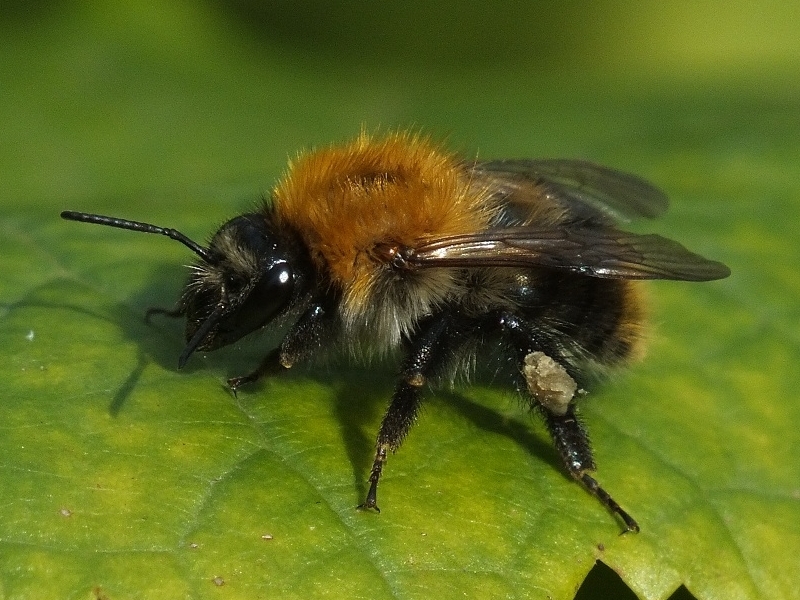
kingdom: Animalia
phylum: Arthropoda
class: Insecta
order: Hymenoptera
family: Apidae
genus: Bombus
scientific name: Bombus pascuorum
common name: Common carder bee
